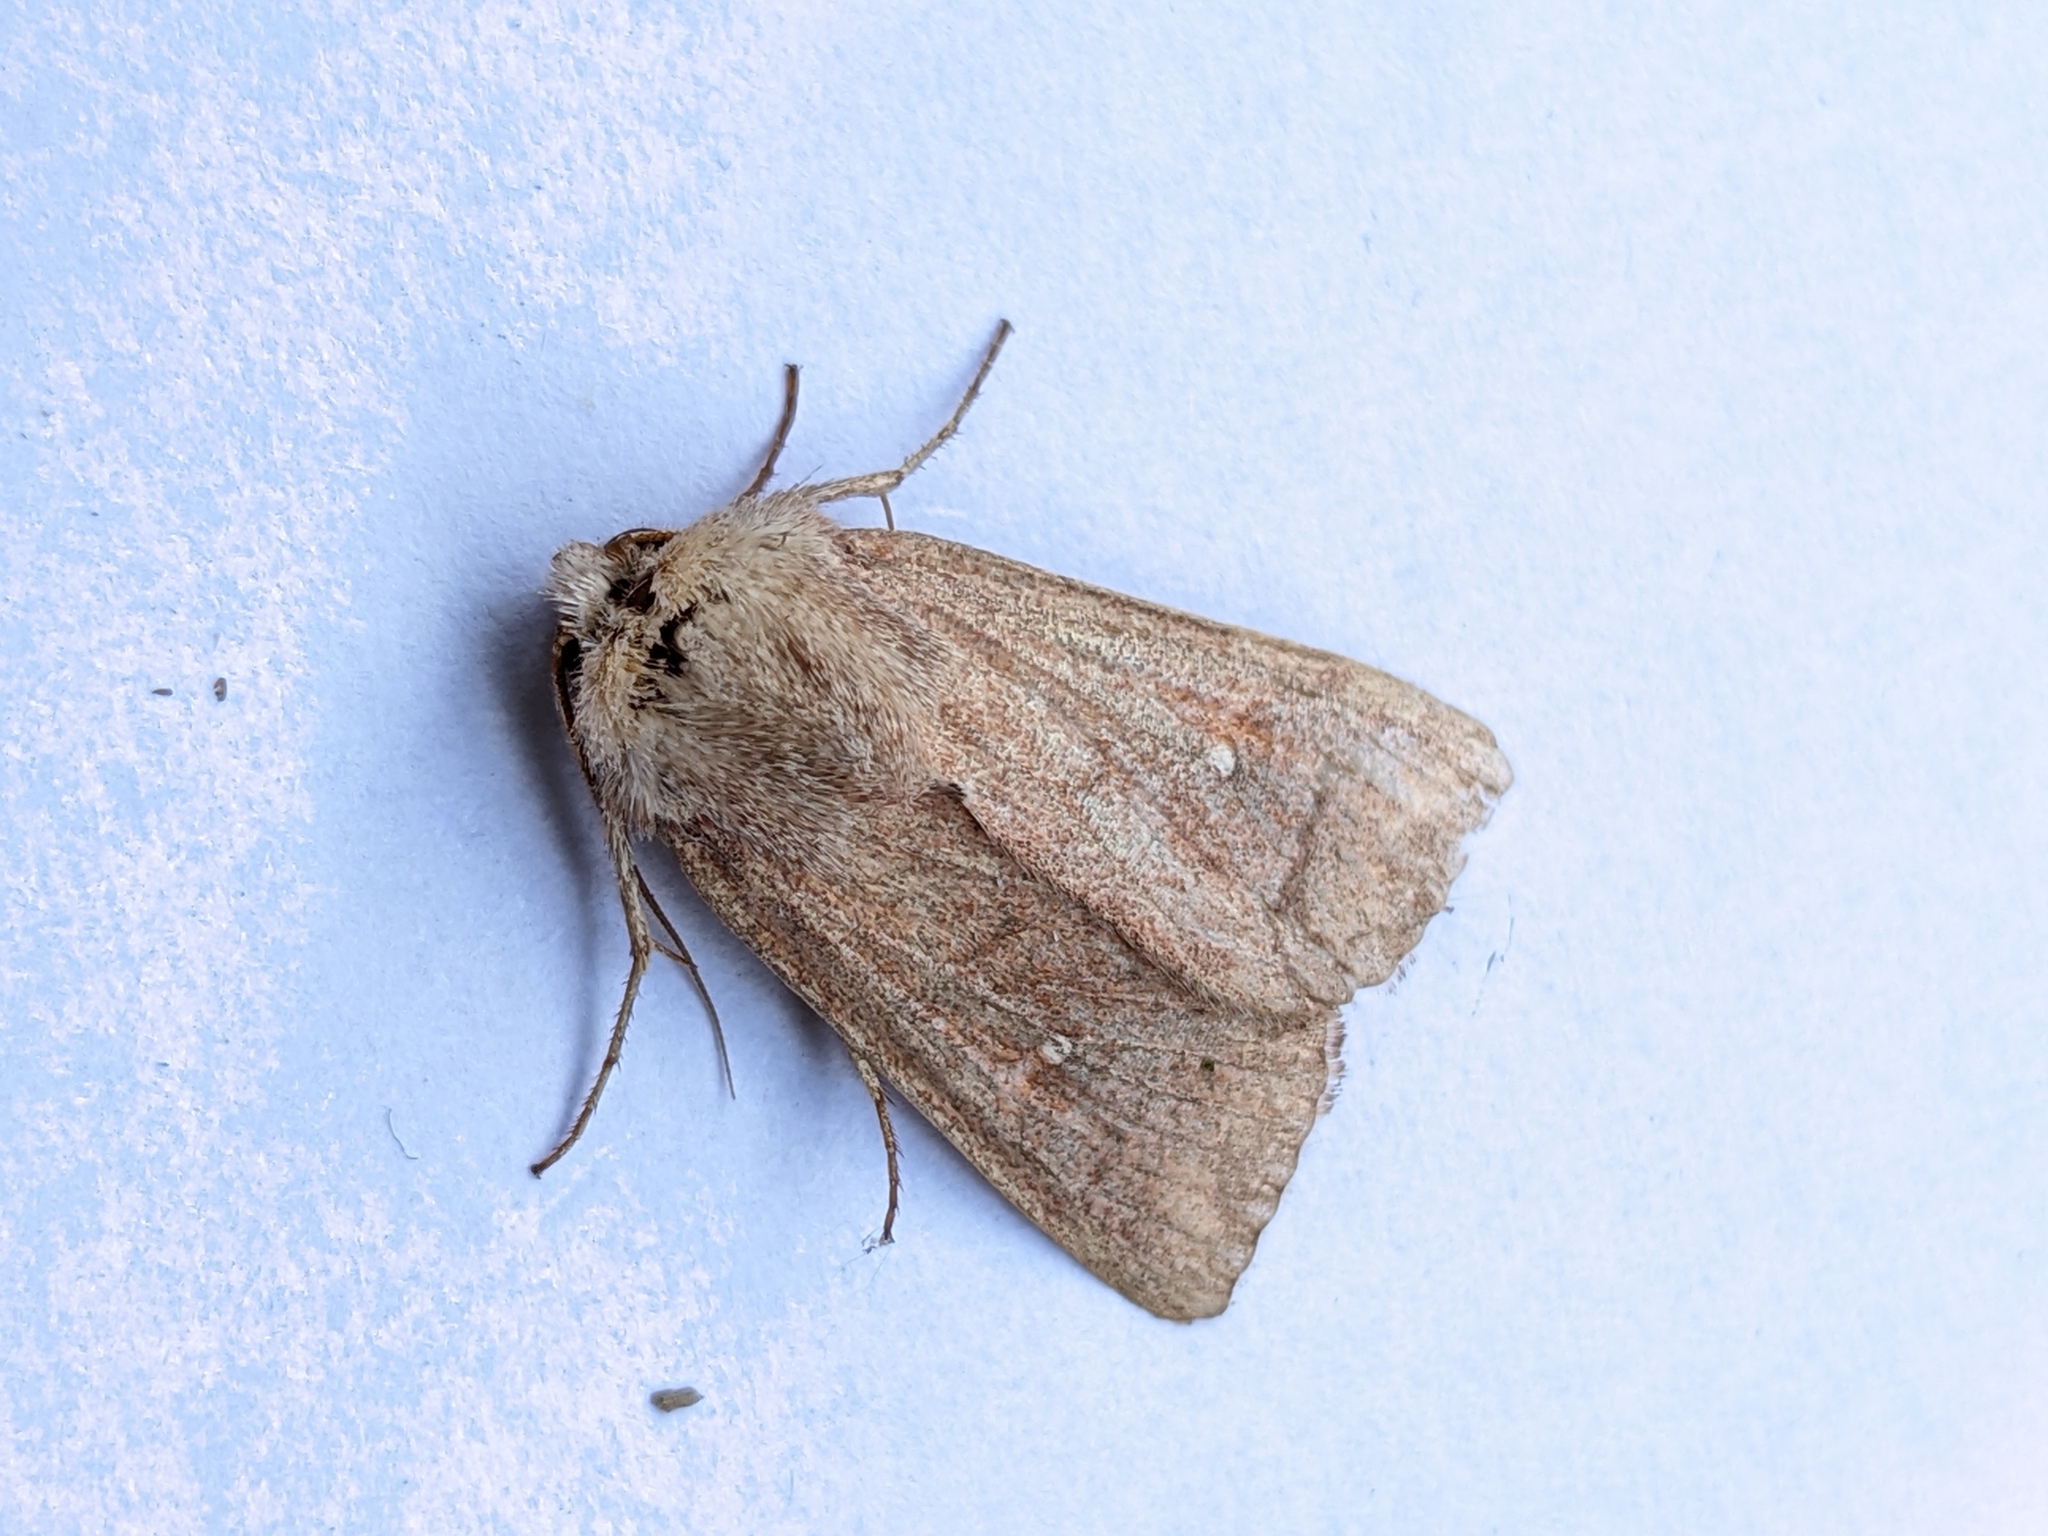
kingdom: Animalia
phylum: Arthropoda
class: Insecta
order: Lepidoptera
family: Noctuidae
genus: Mythimna
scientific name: Mythimna albipuncta
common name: White-point
